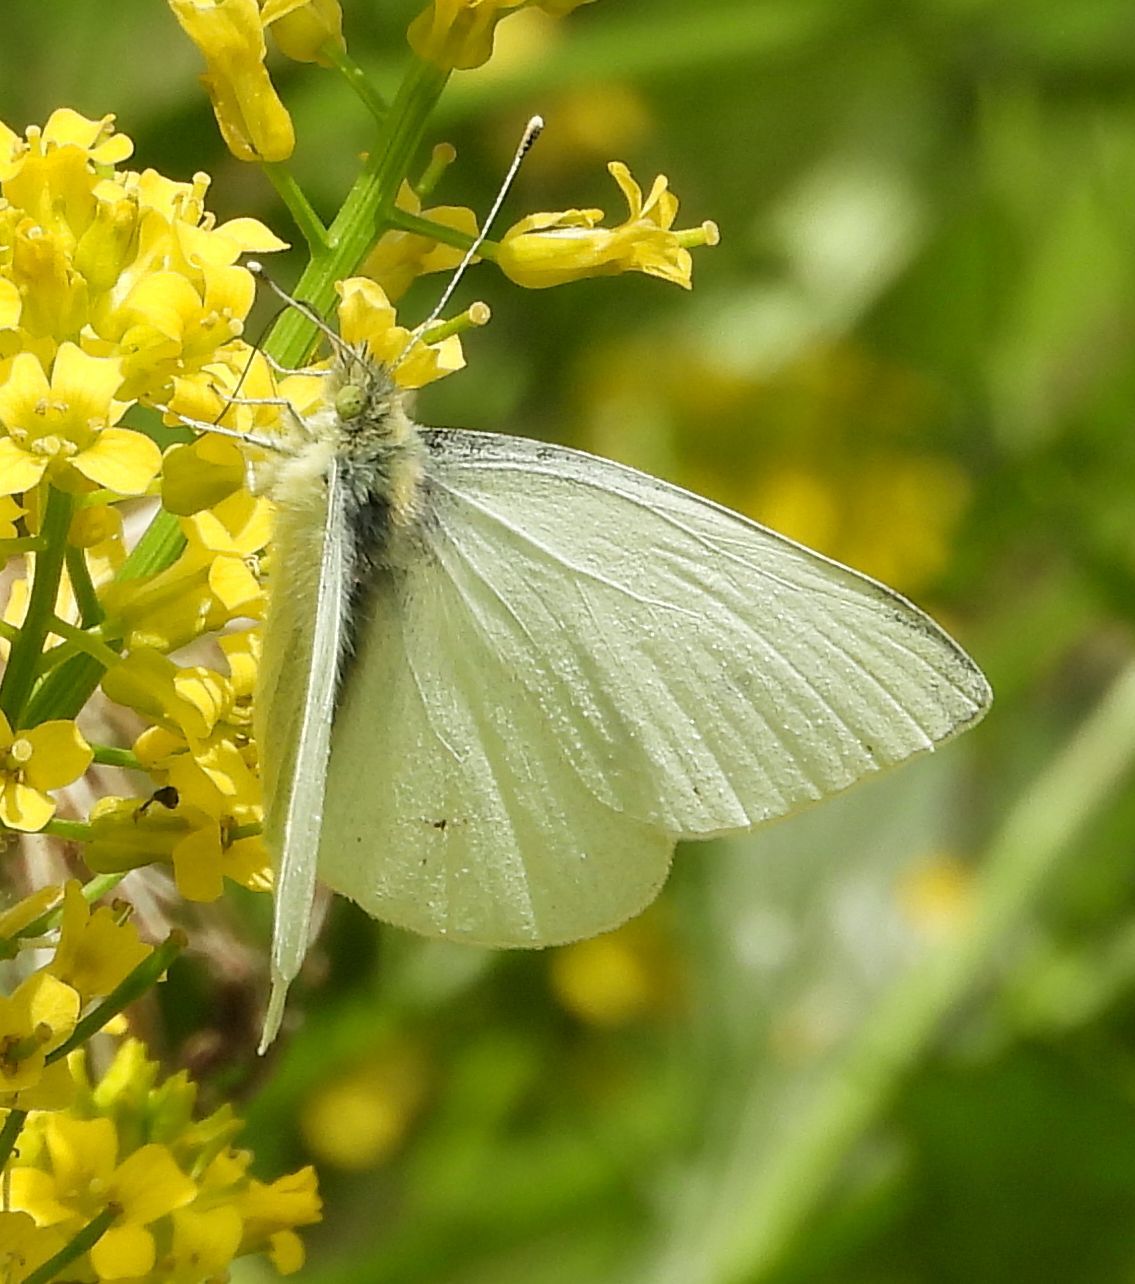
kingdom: Animalia
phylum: Arthropoda
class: Insecta
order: Lepidoptera
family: Pieridae
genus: Pieris
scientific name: Pieris rapae
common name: Small white
